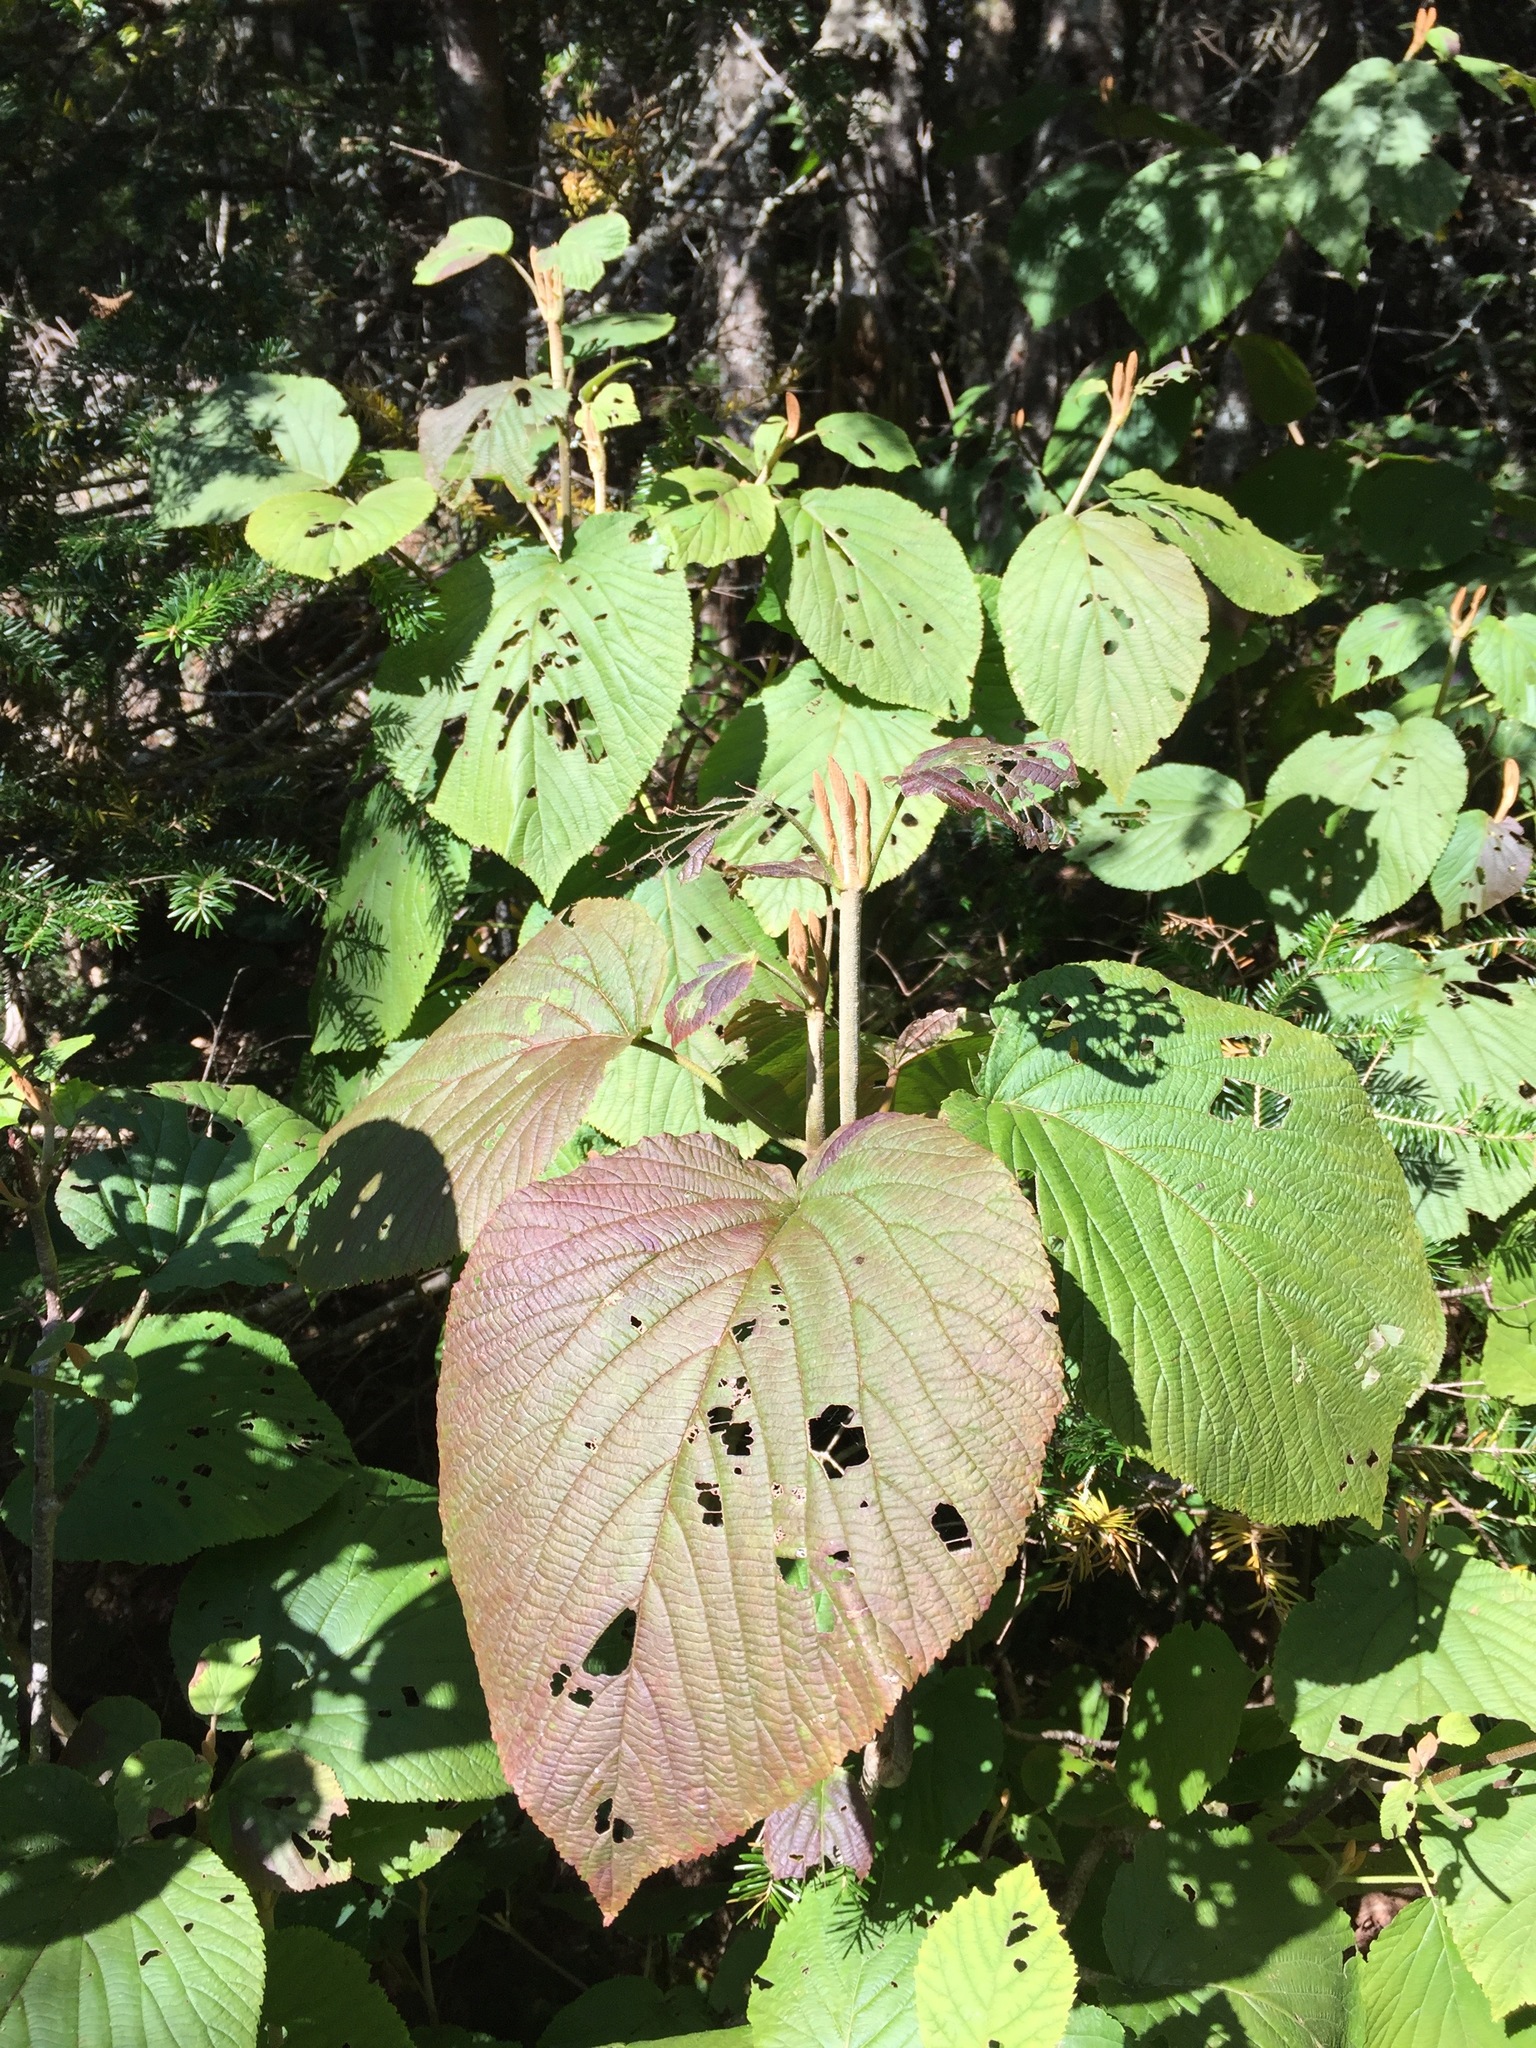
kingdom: Plantae
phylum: Tracheophyta
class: Magnoliopsida
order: Dipsacales
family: Viburnaceae
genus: Viburnum
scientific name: Viburnum lantanoides
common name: Hobblebush
